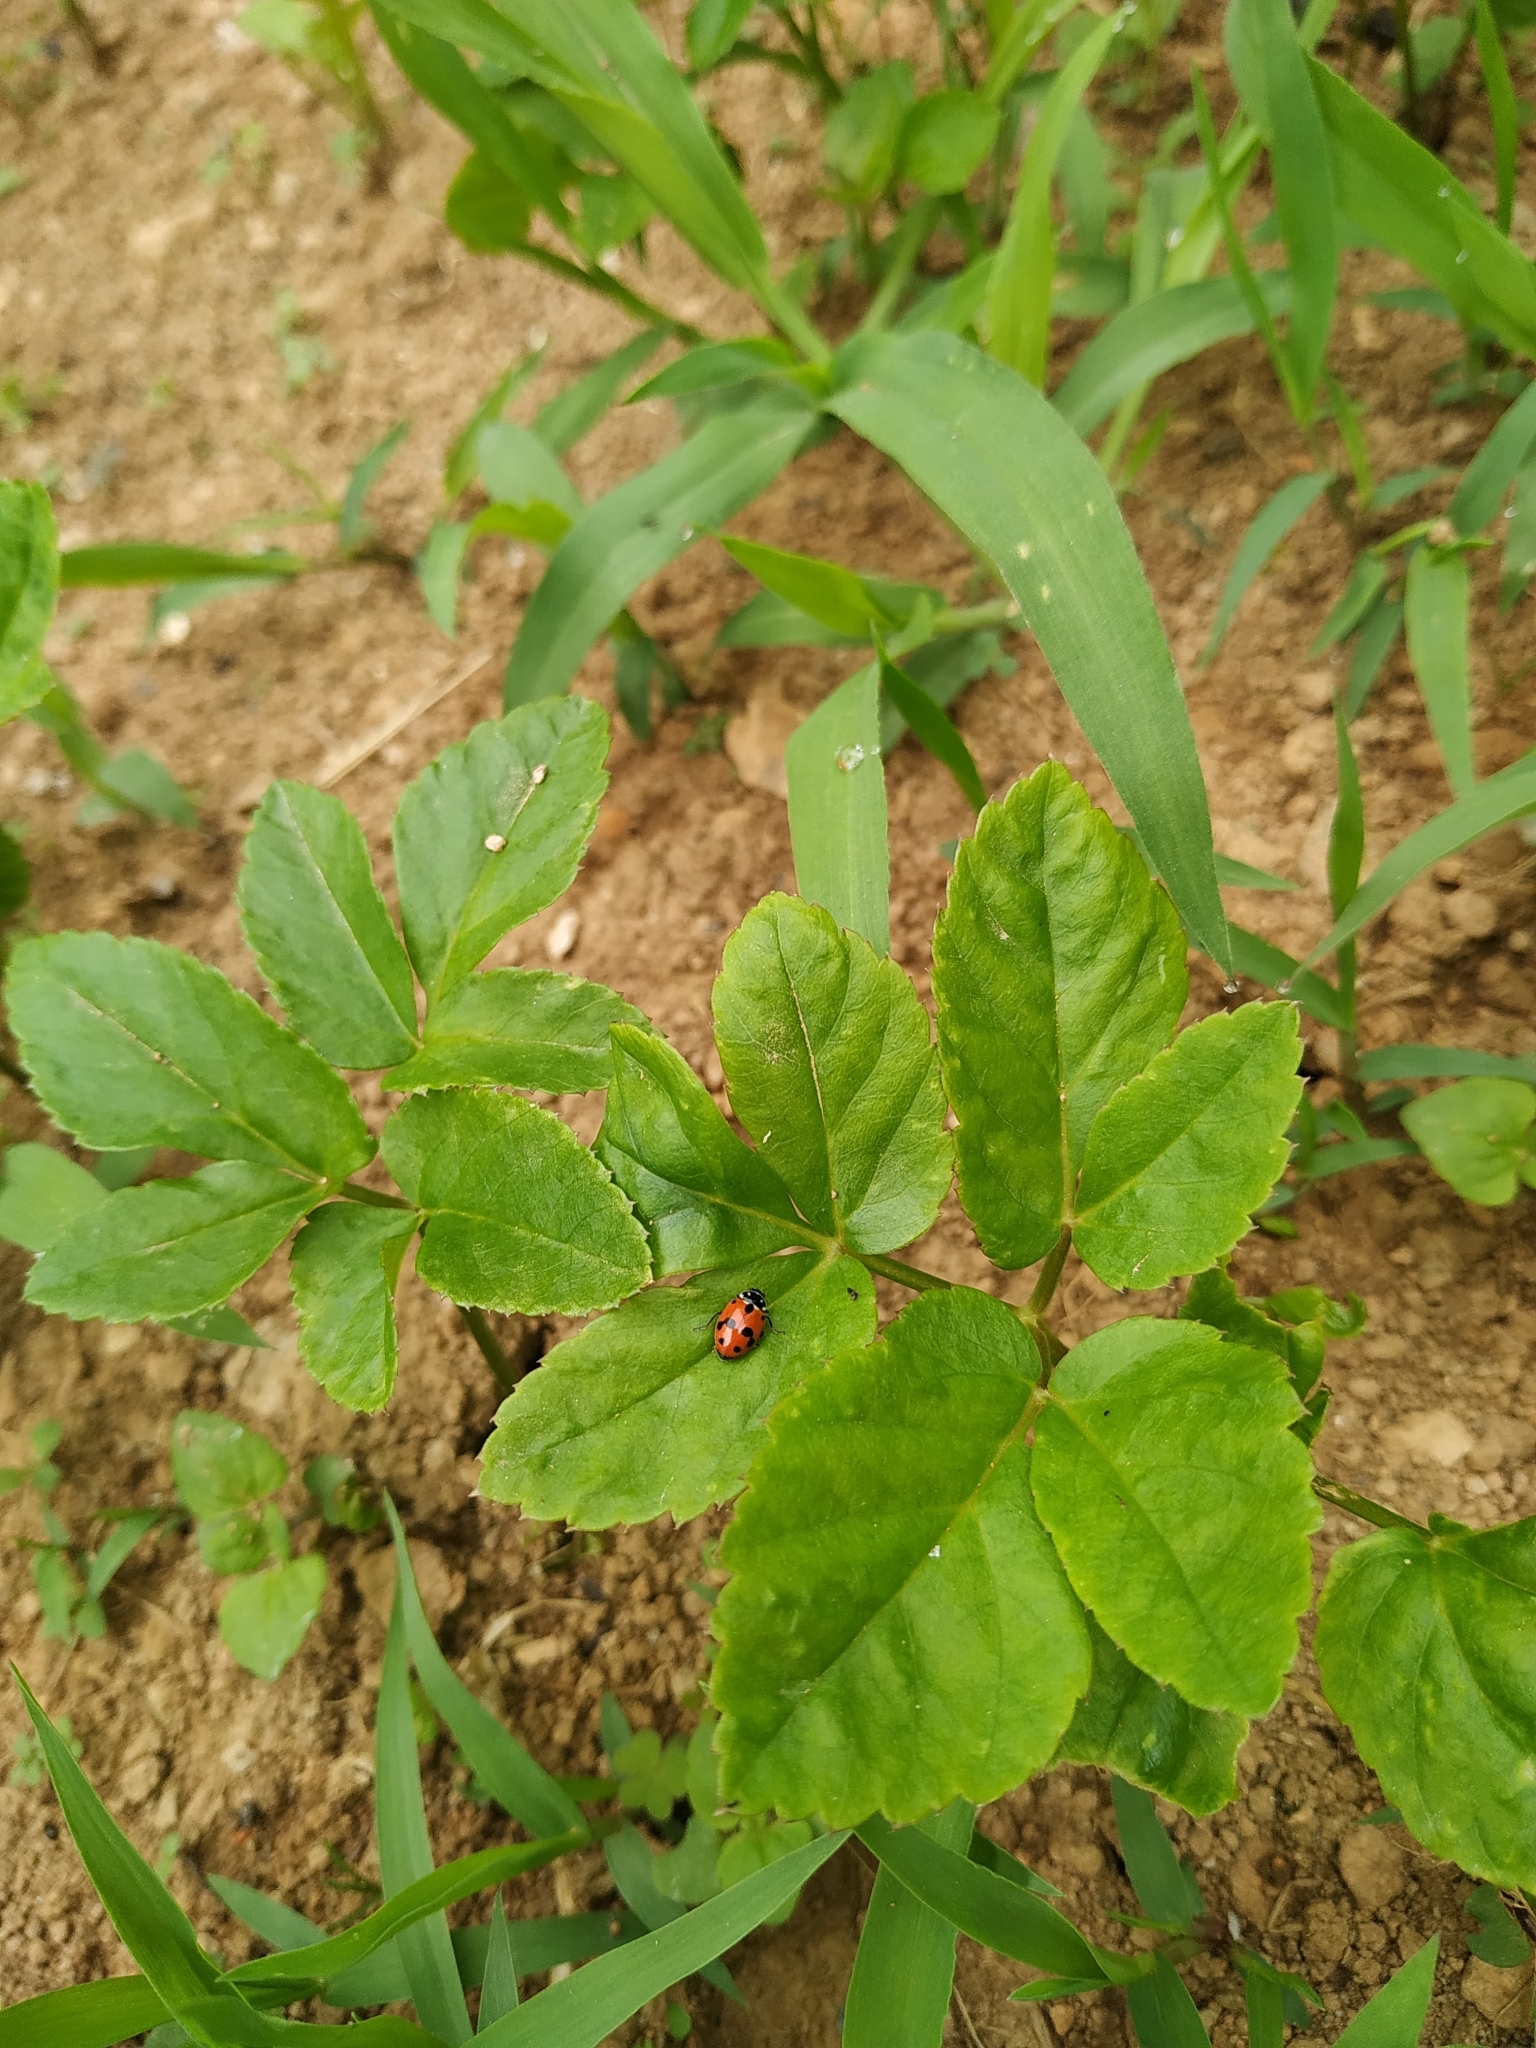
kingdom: Animalia
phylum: Arthropoda
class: Insecta
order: Coleoptera
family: Coccinellidae
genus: Hippodamia
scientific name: Hippodamia variegata
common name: Ladybird beetle
